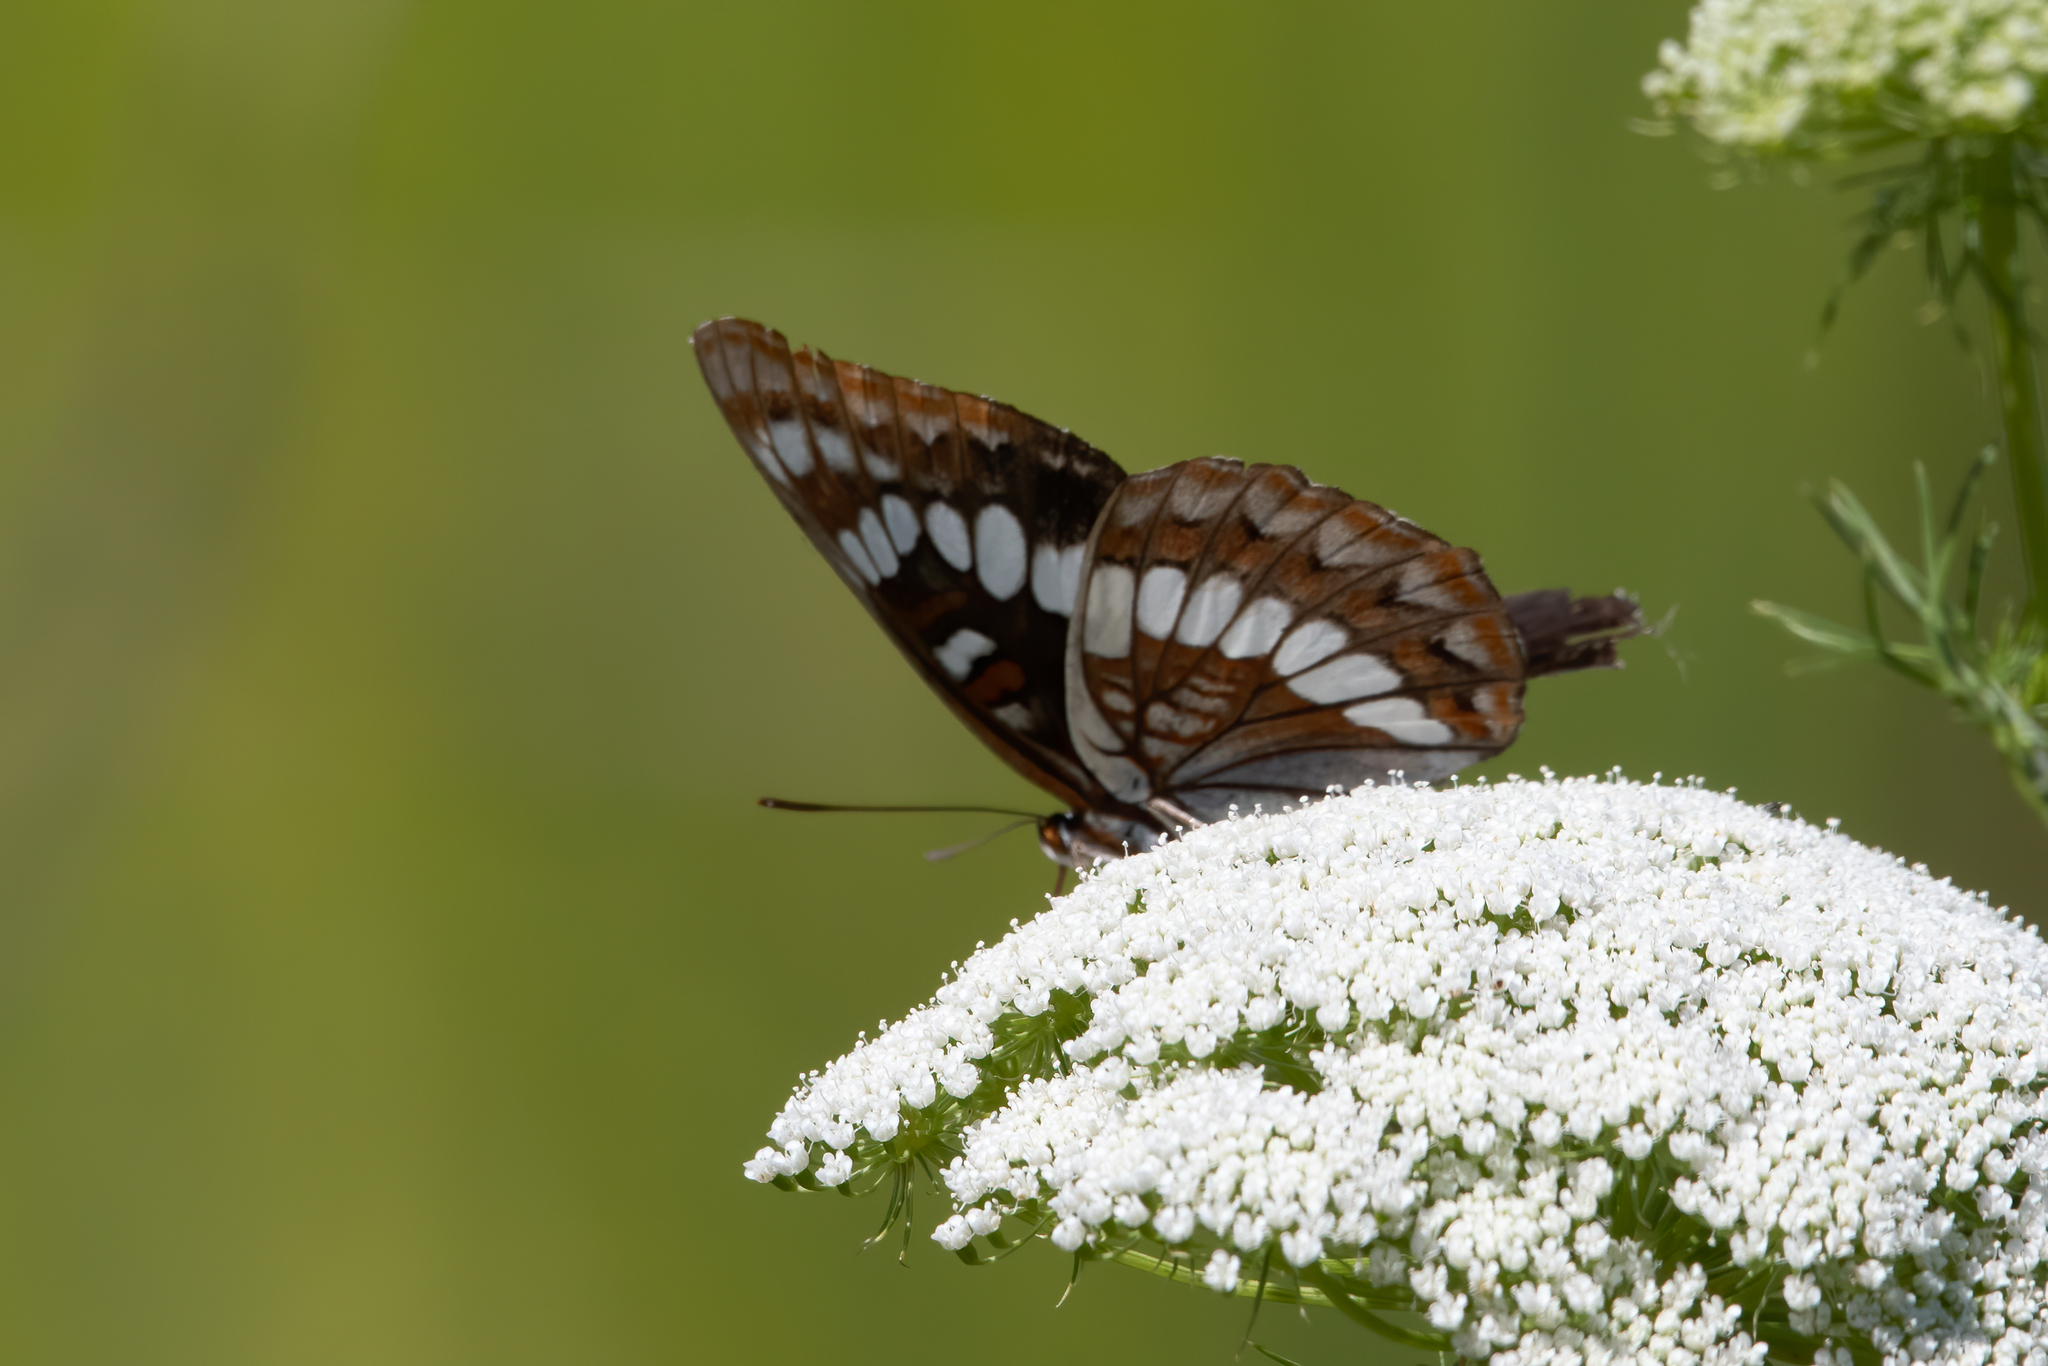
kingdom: Animalia
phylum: Arthropoda
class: Insecta
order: Lepidoptera
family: Nymphalidae
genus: Limenitis
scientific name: Limenitis lorquini
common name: Lorquin's admiral
